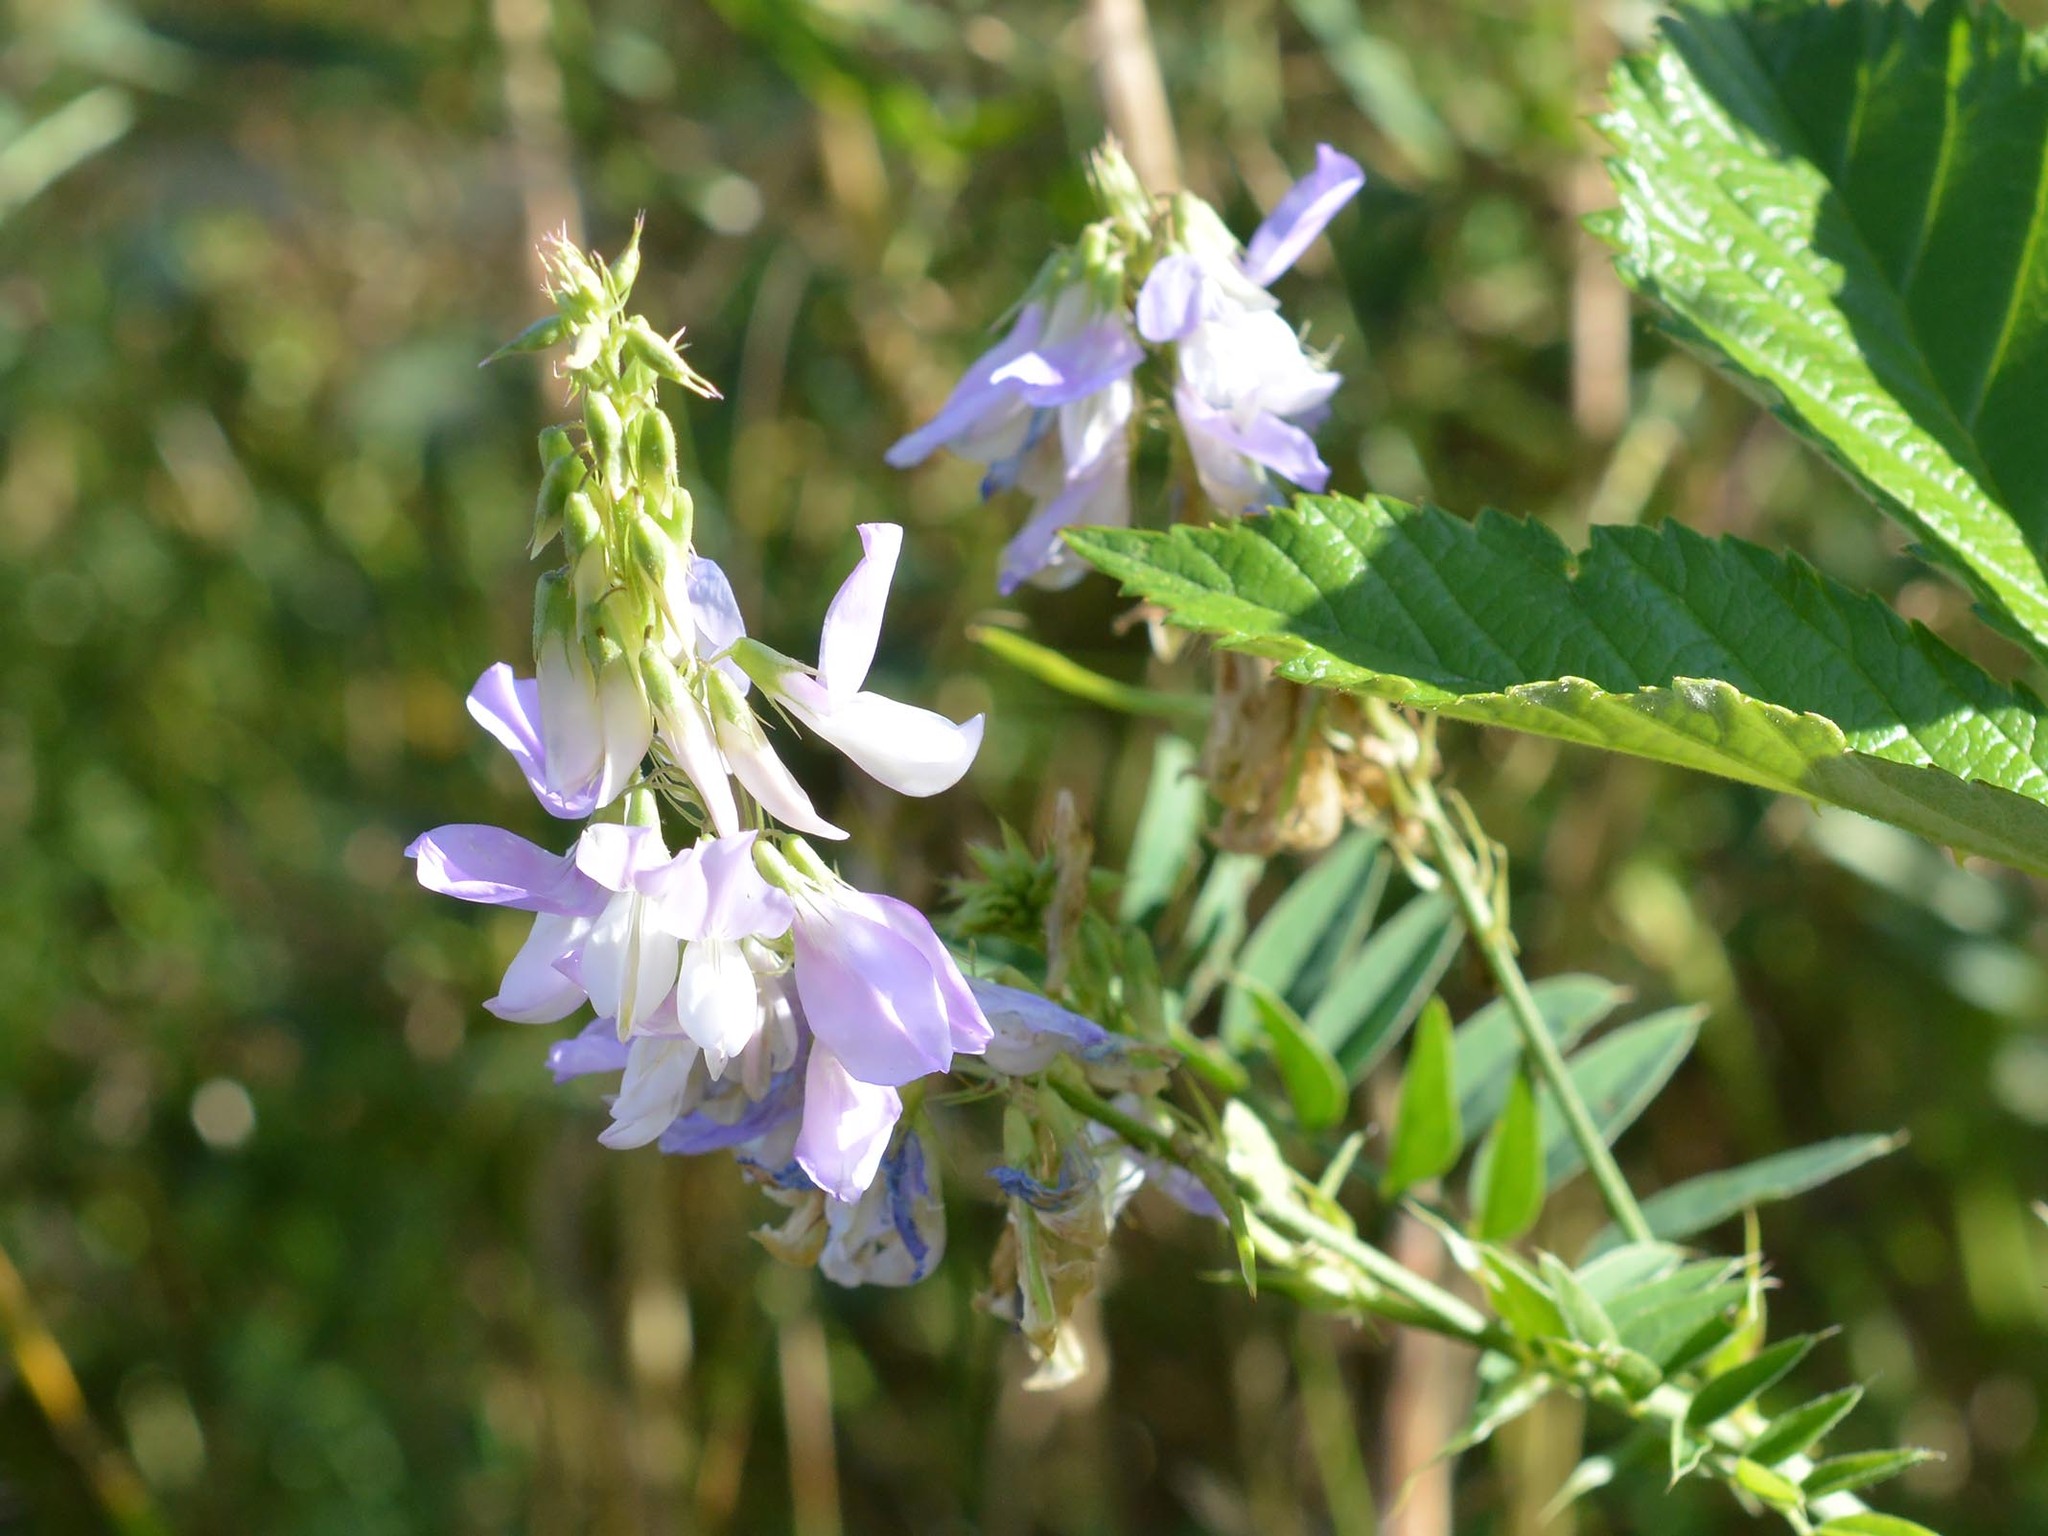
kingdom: Plantae
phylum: Tracheophyta
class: Magnoliopsida
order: Fabales
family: Fabaceae
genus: Galega
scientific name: Galega officinalis
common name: Goat's-rue
